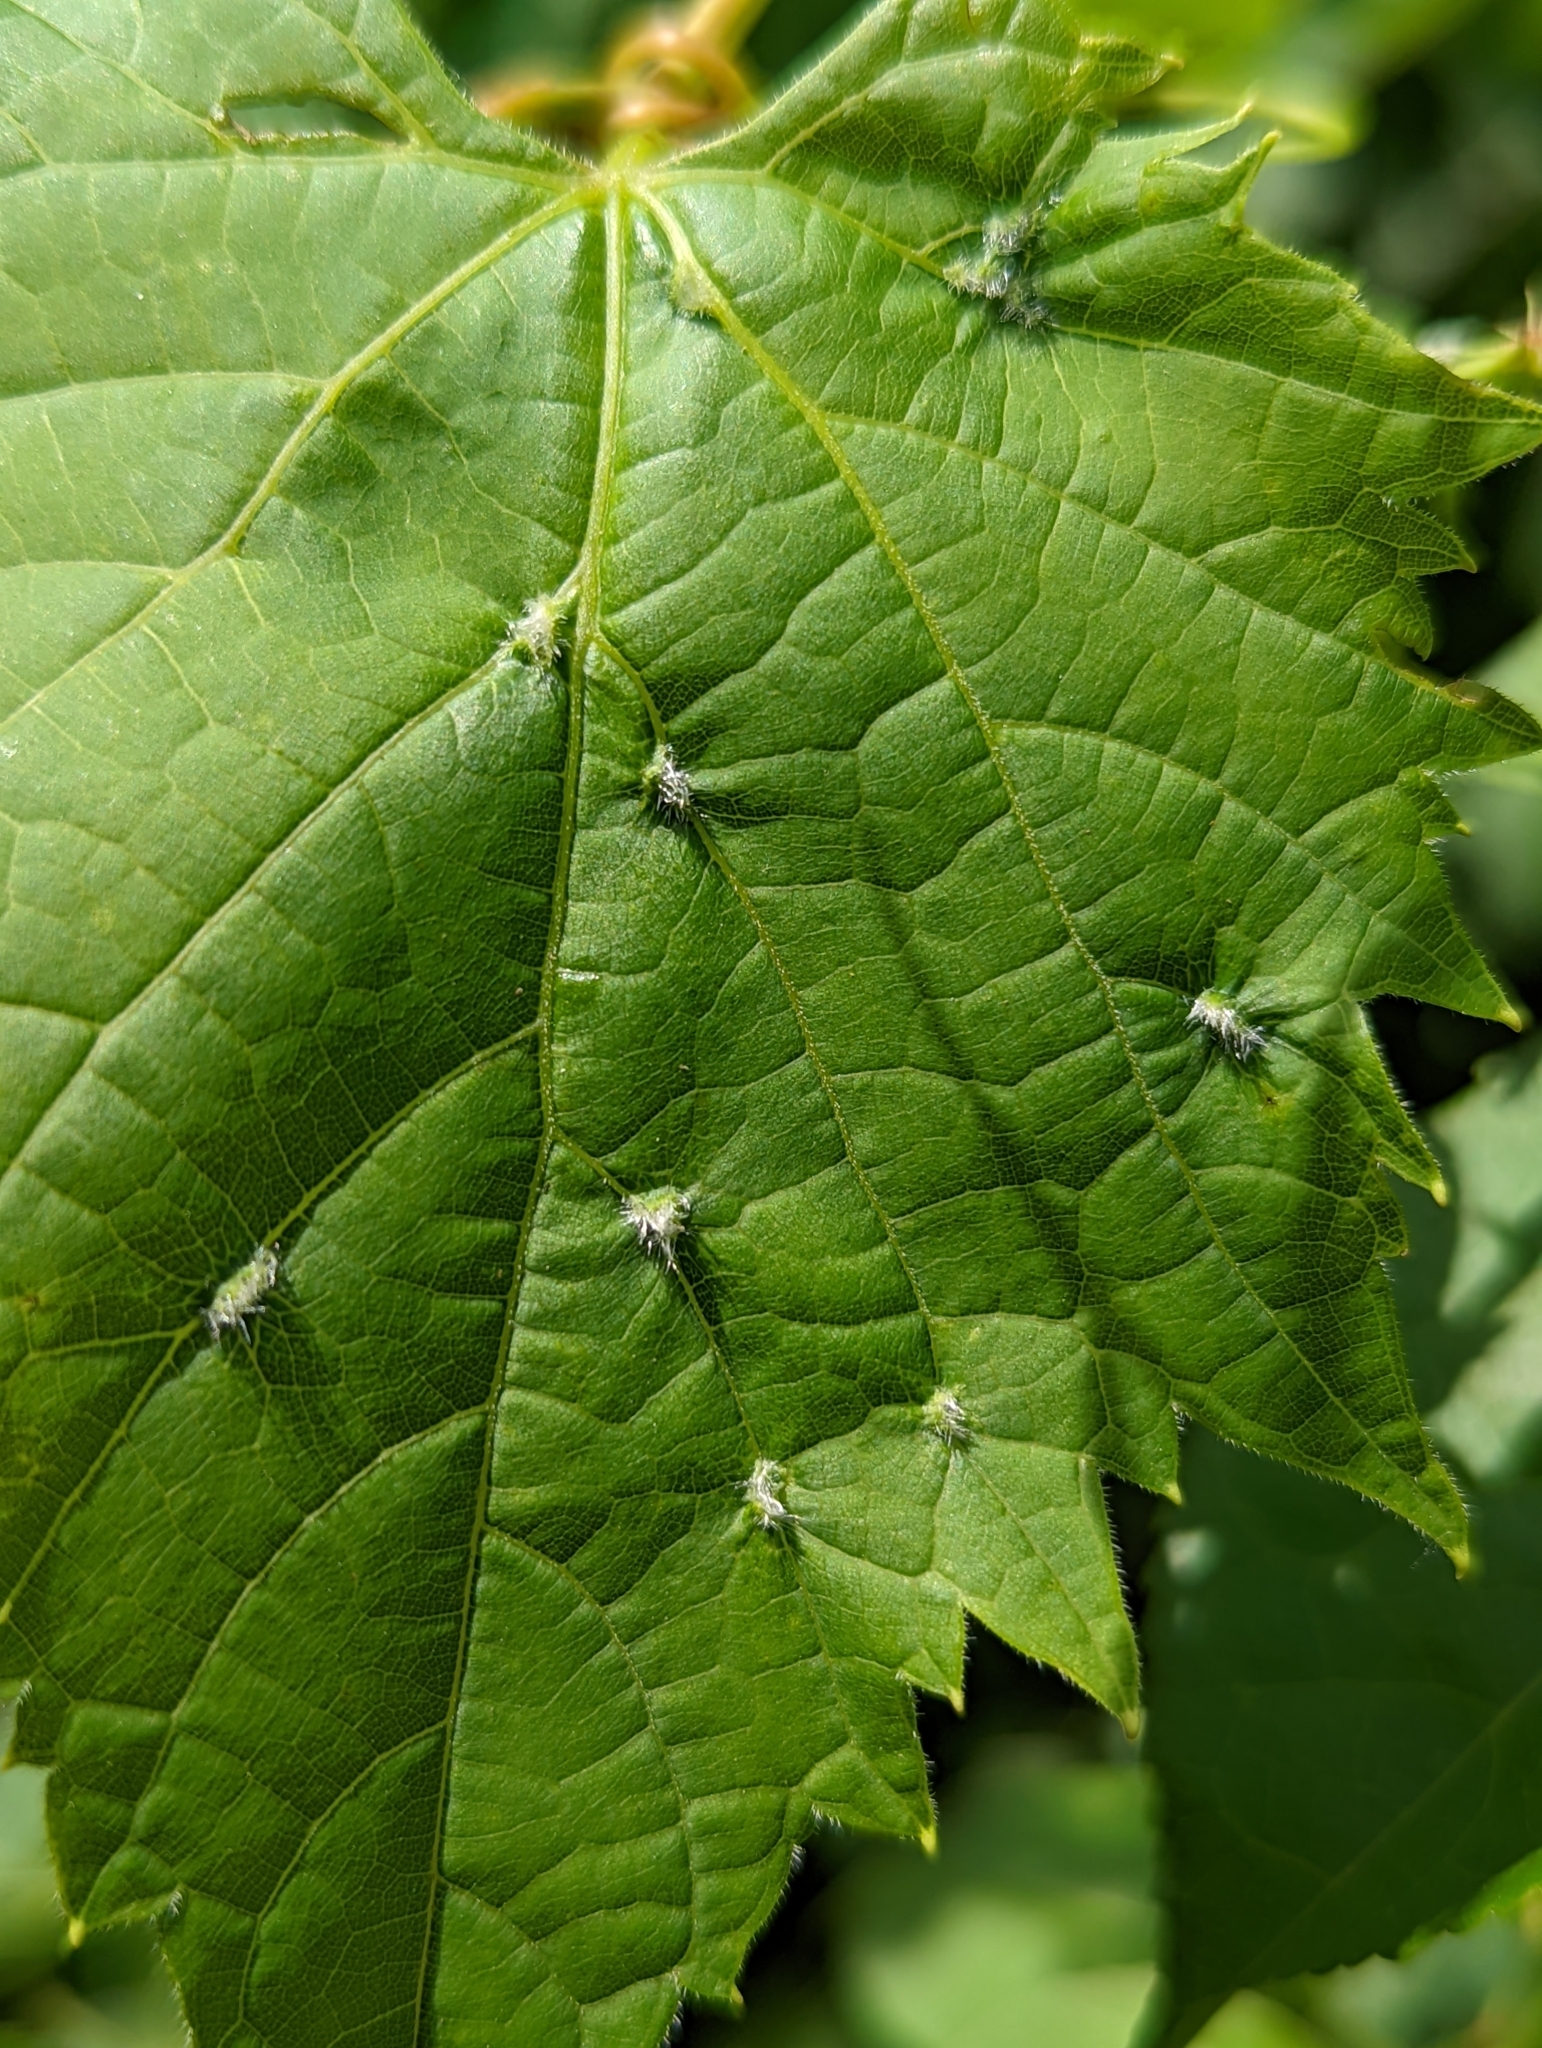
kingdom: Animalia
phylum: Arthropoda
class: Insecta
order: Hemiptera
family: Phylloxeridae
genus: Daktulosphaira
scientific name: Daktulosphaira vitifoliae
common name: Grape phylloxera
